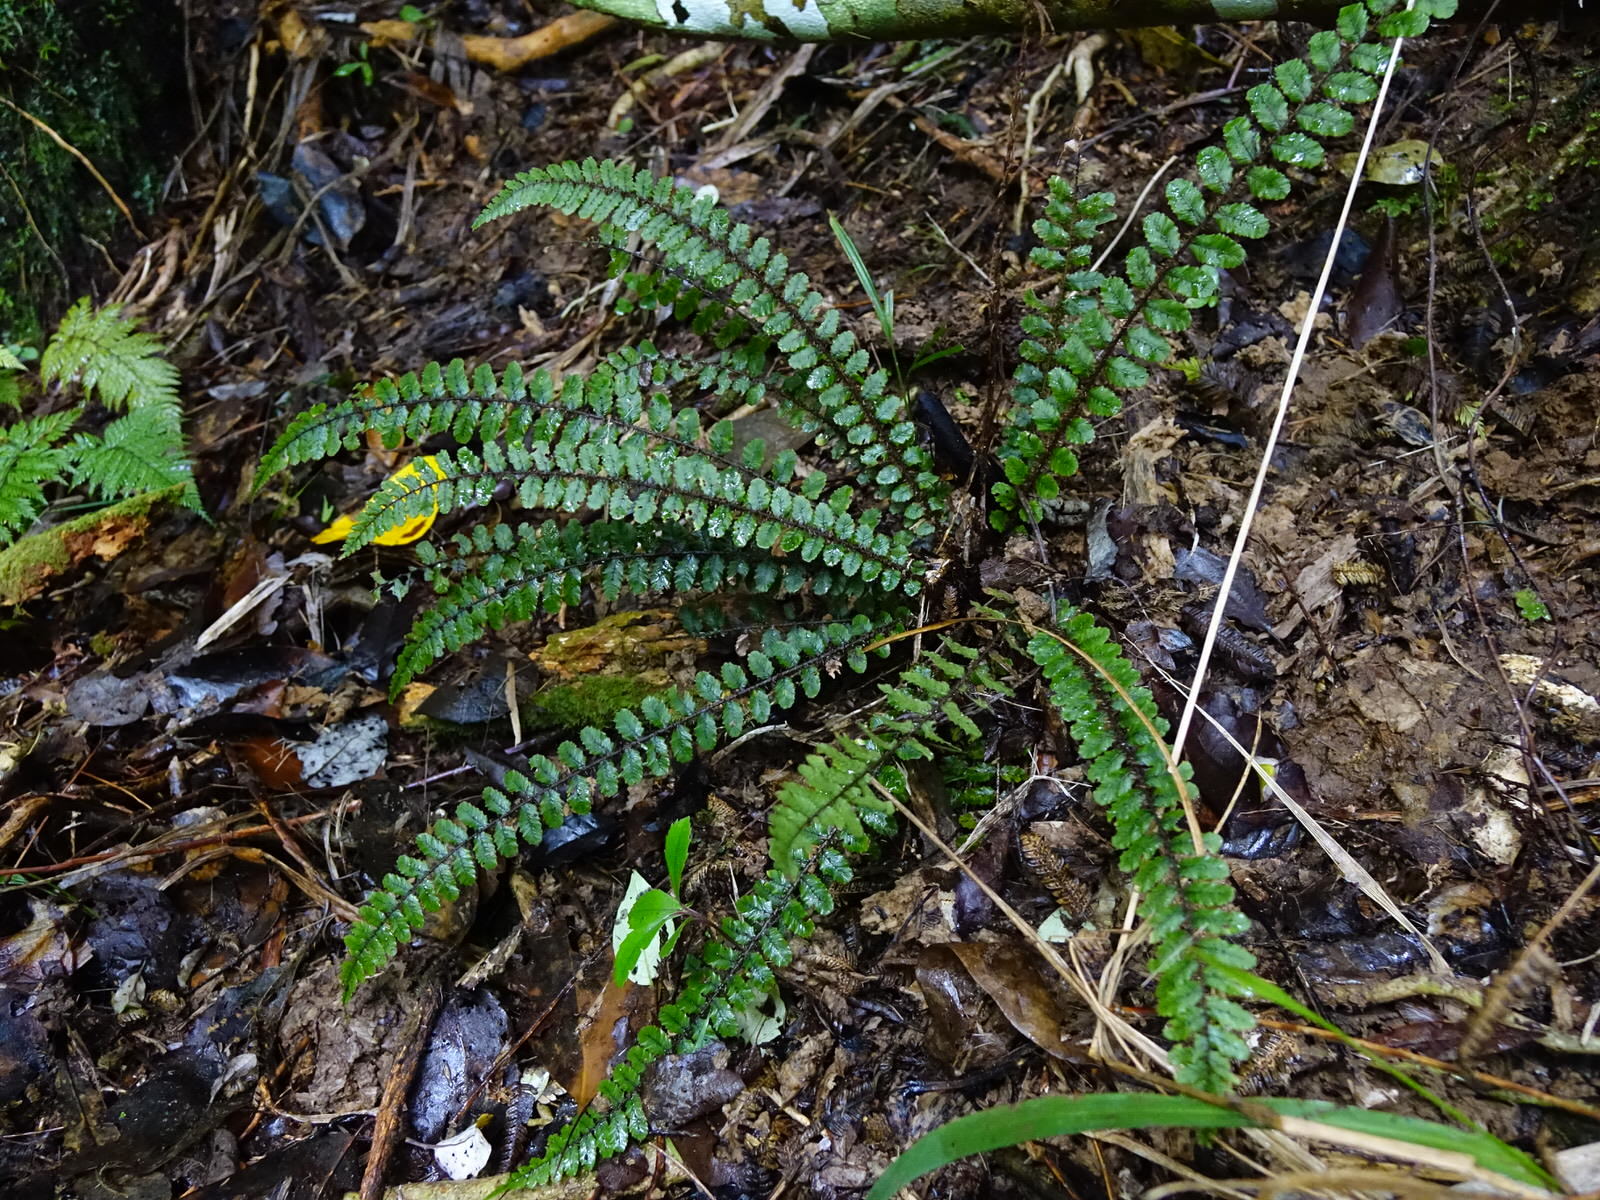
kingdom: Plantae
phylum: Tracheophyta
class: Polypodiopsida
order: Polypodiales
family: Blechnaceae
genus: Cranfillia
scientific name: Cranfillia fluviatilis
